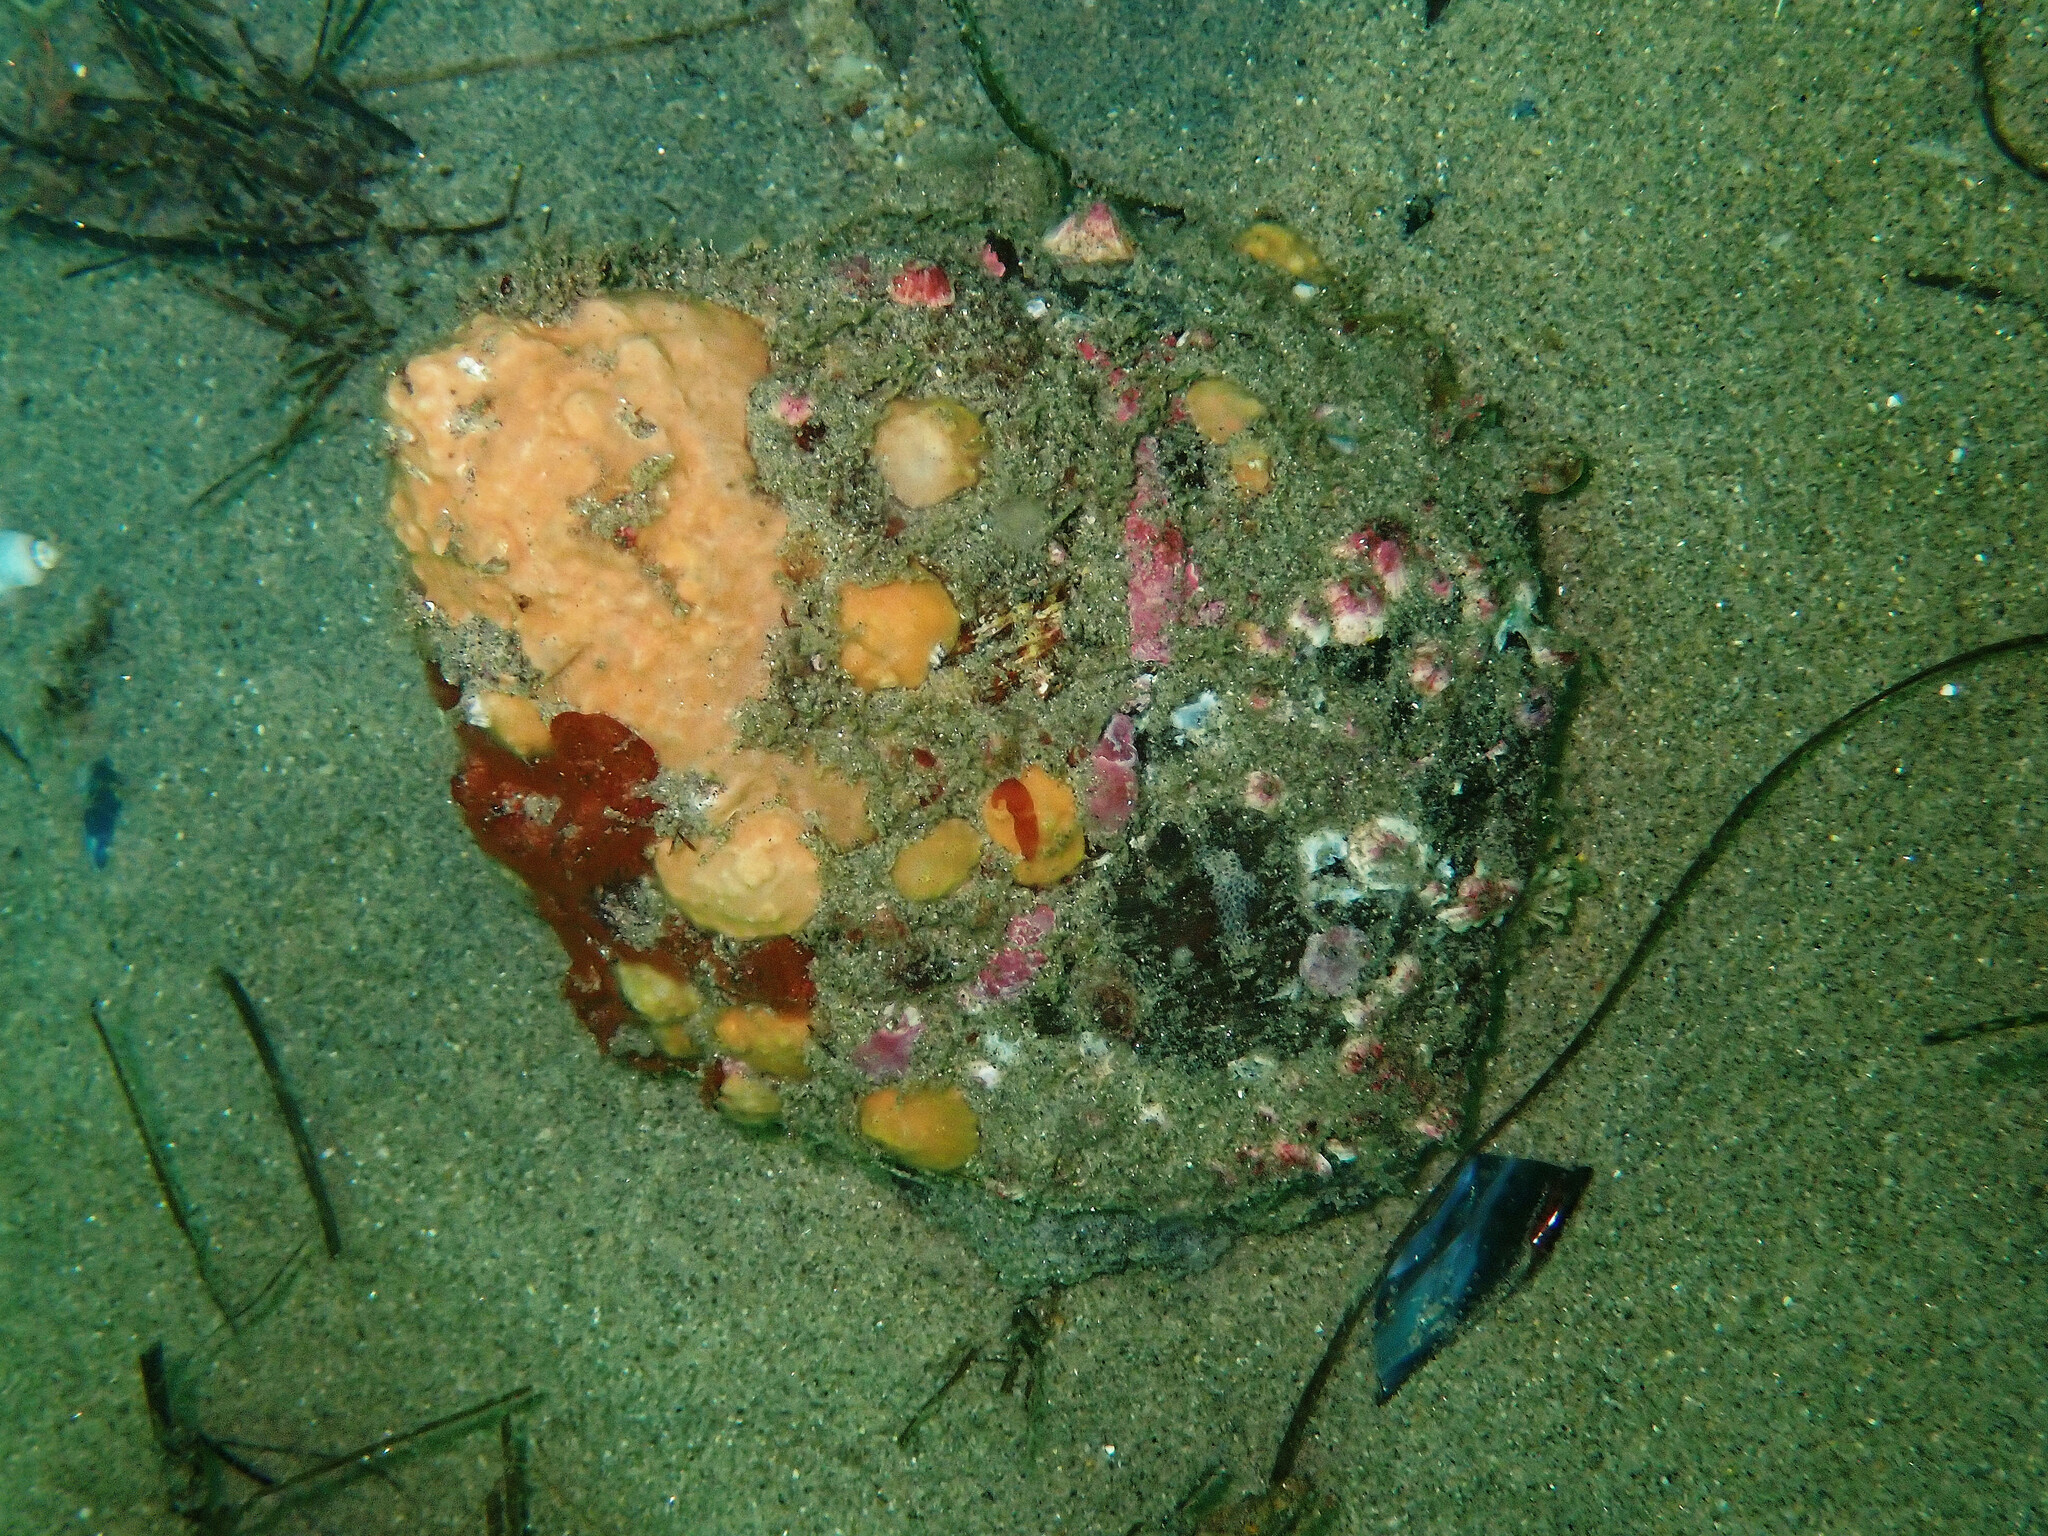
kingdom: Animalia
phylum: Mollusca
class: Gastropoda
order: Trochida
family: Turbinidae
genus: Megastraea
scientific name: Megastraea undosa
